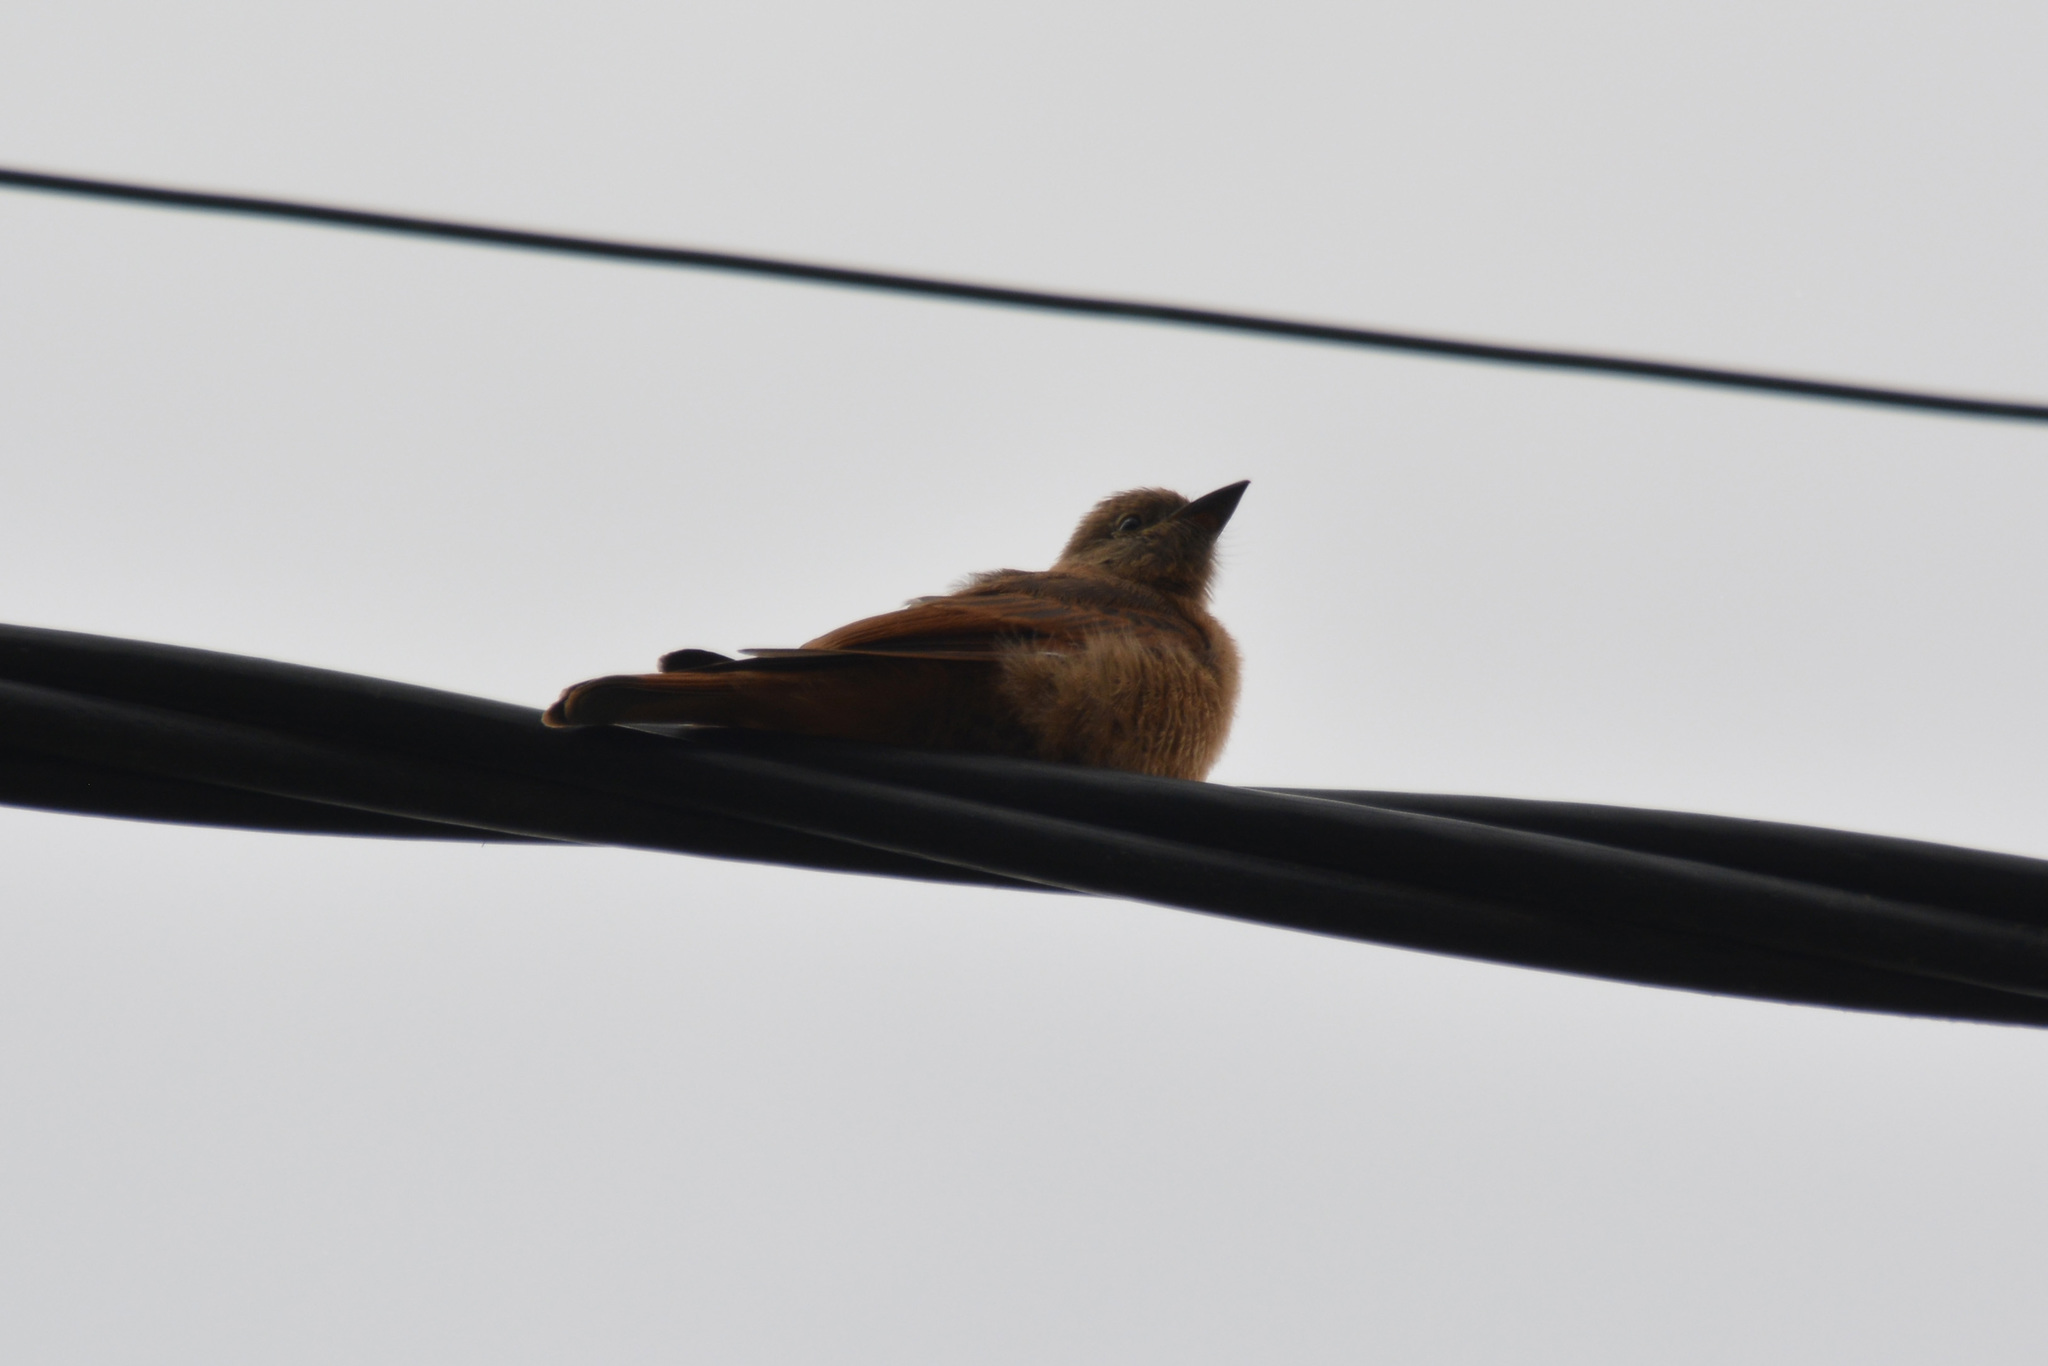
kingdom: Animalia
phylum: Chordata
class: Aves
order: Passeriformes
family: Tyrannidae
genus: Hirundinea
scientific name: Hirundinea ferruginea
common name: Cliff flycatcher
